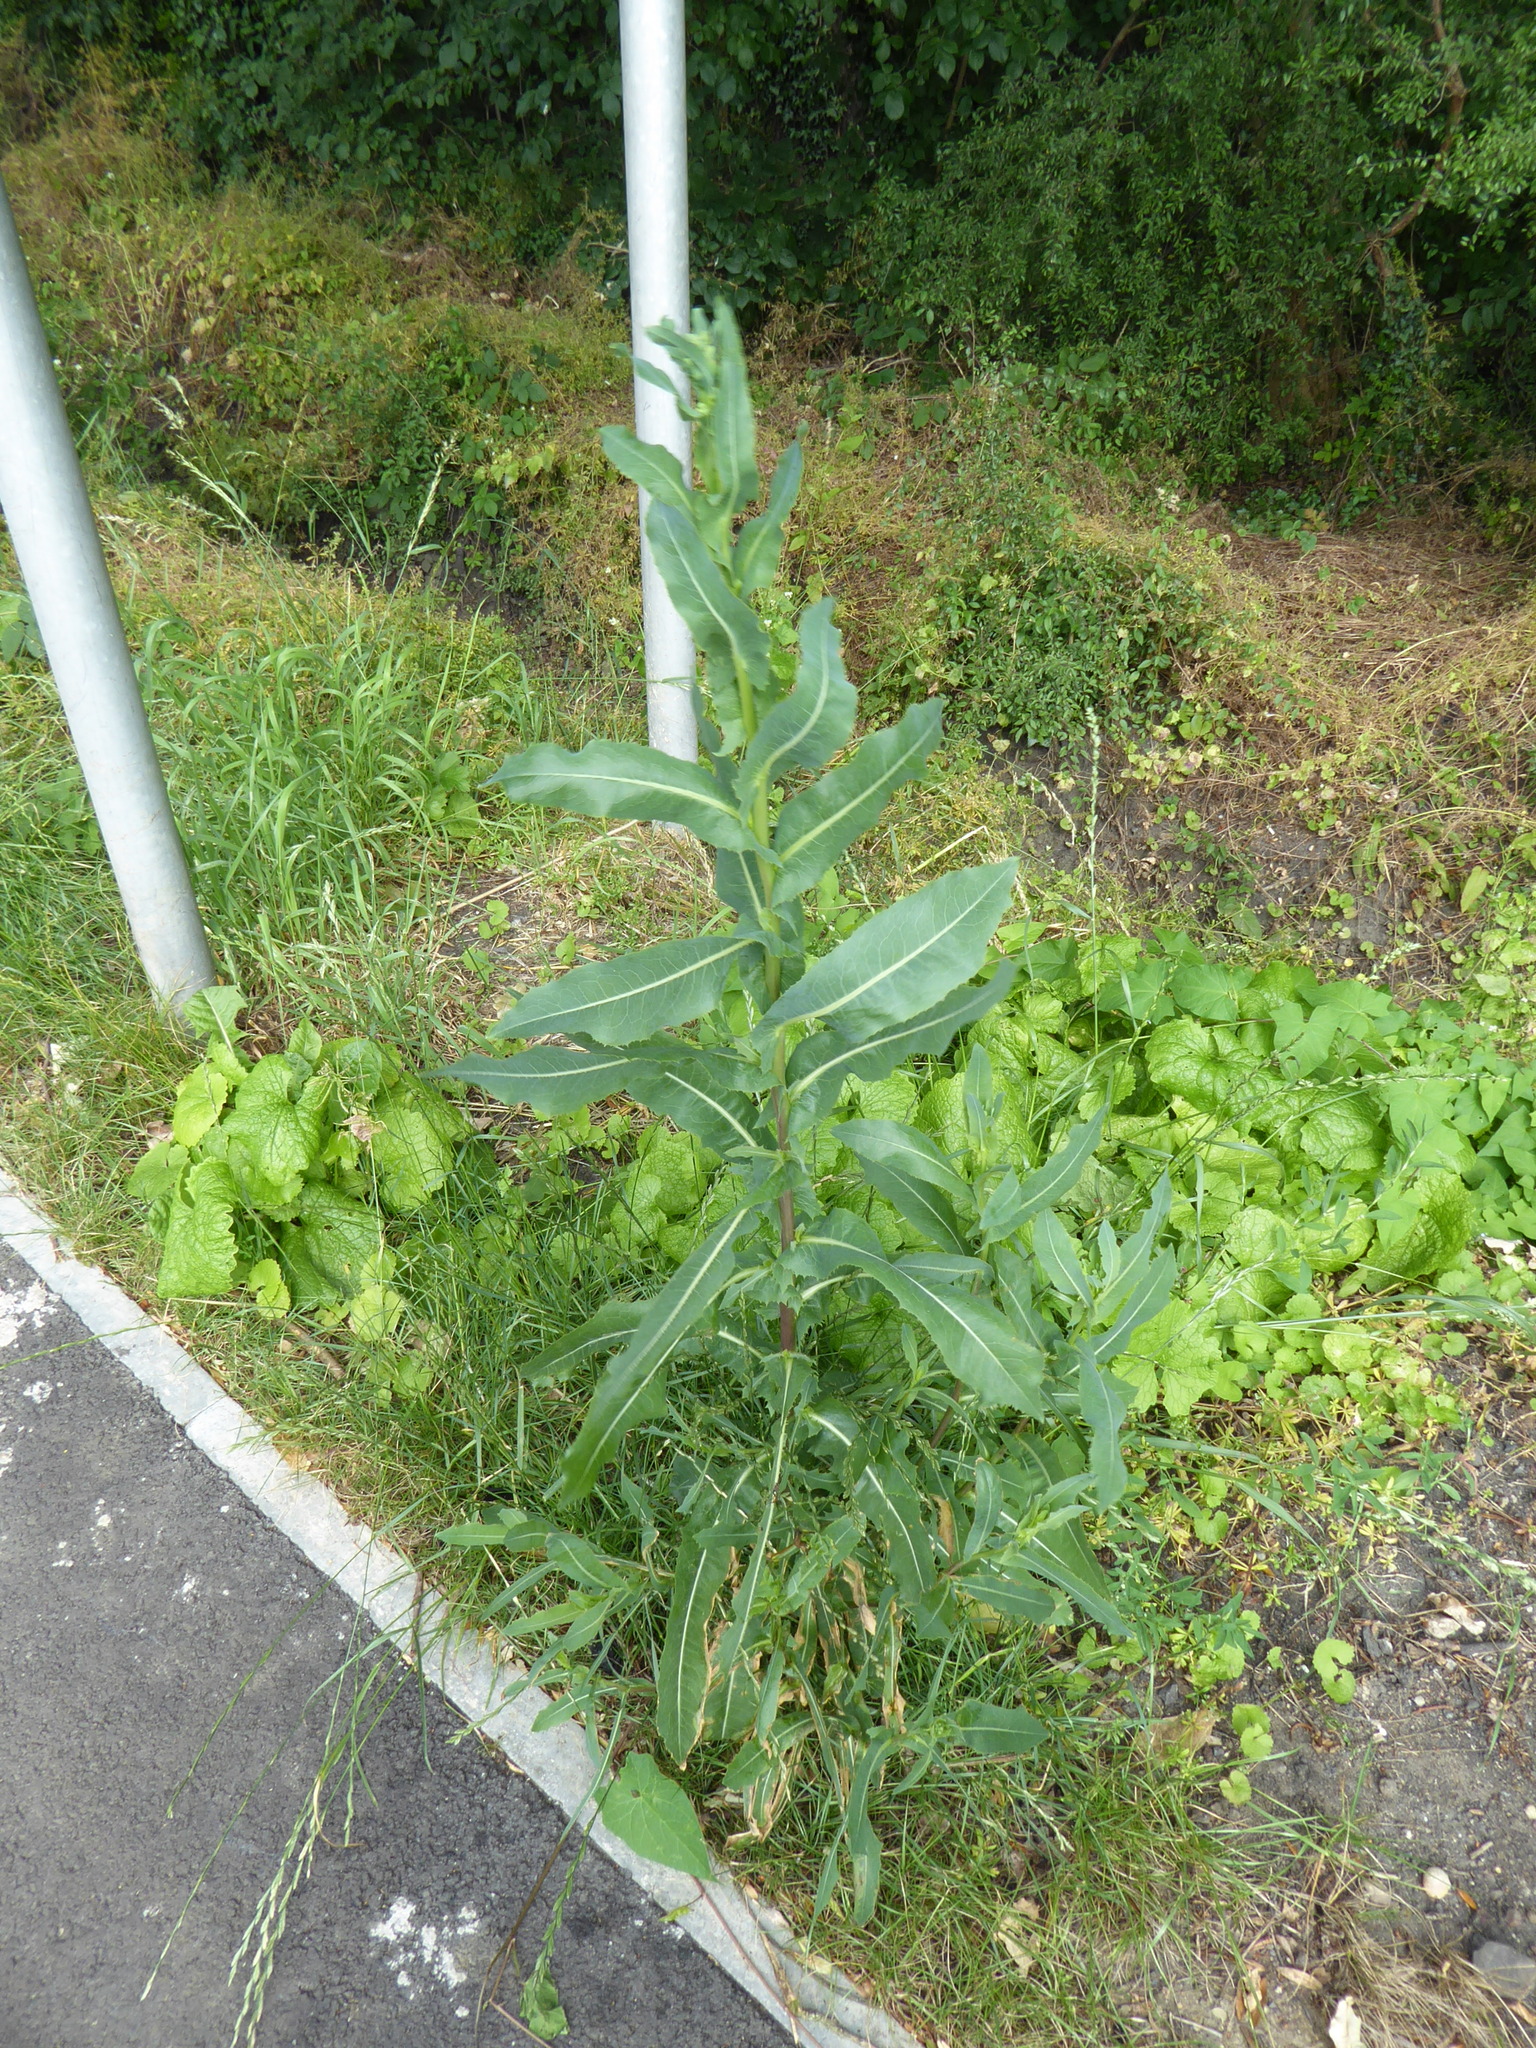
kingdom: Plantae
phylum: Tracheophyta
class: Magnoliopsida
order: Asterales
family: Asteraceae
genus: Lactuca
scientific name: Lactuca serriola
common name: Prickly lettuce
